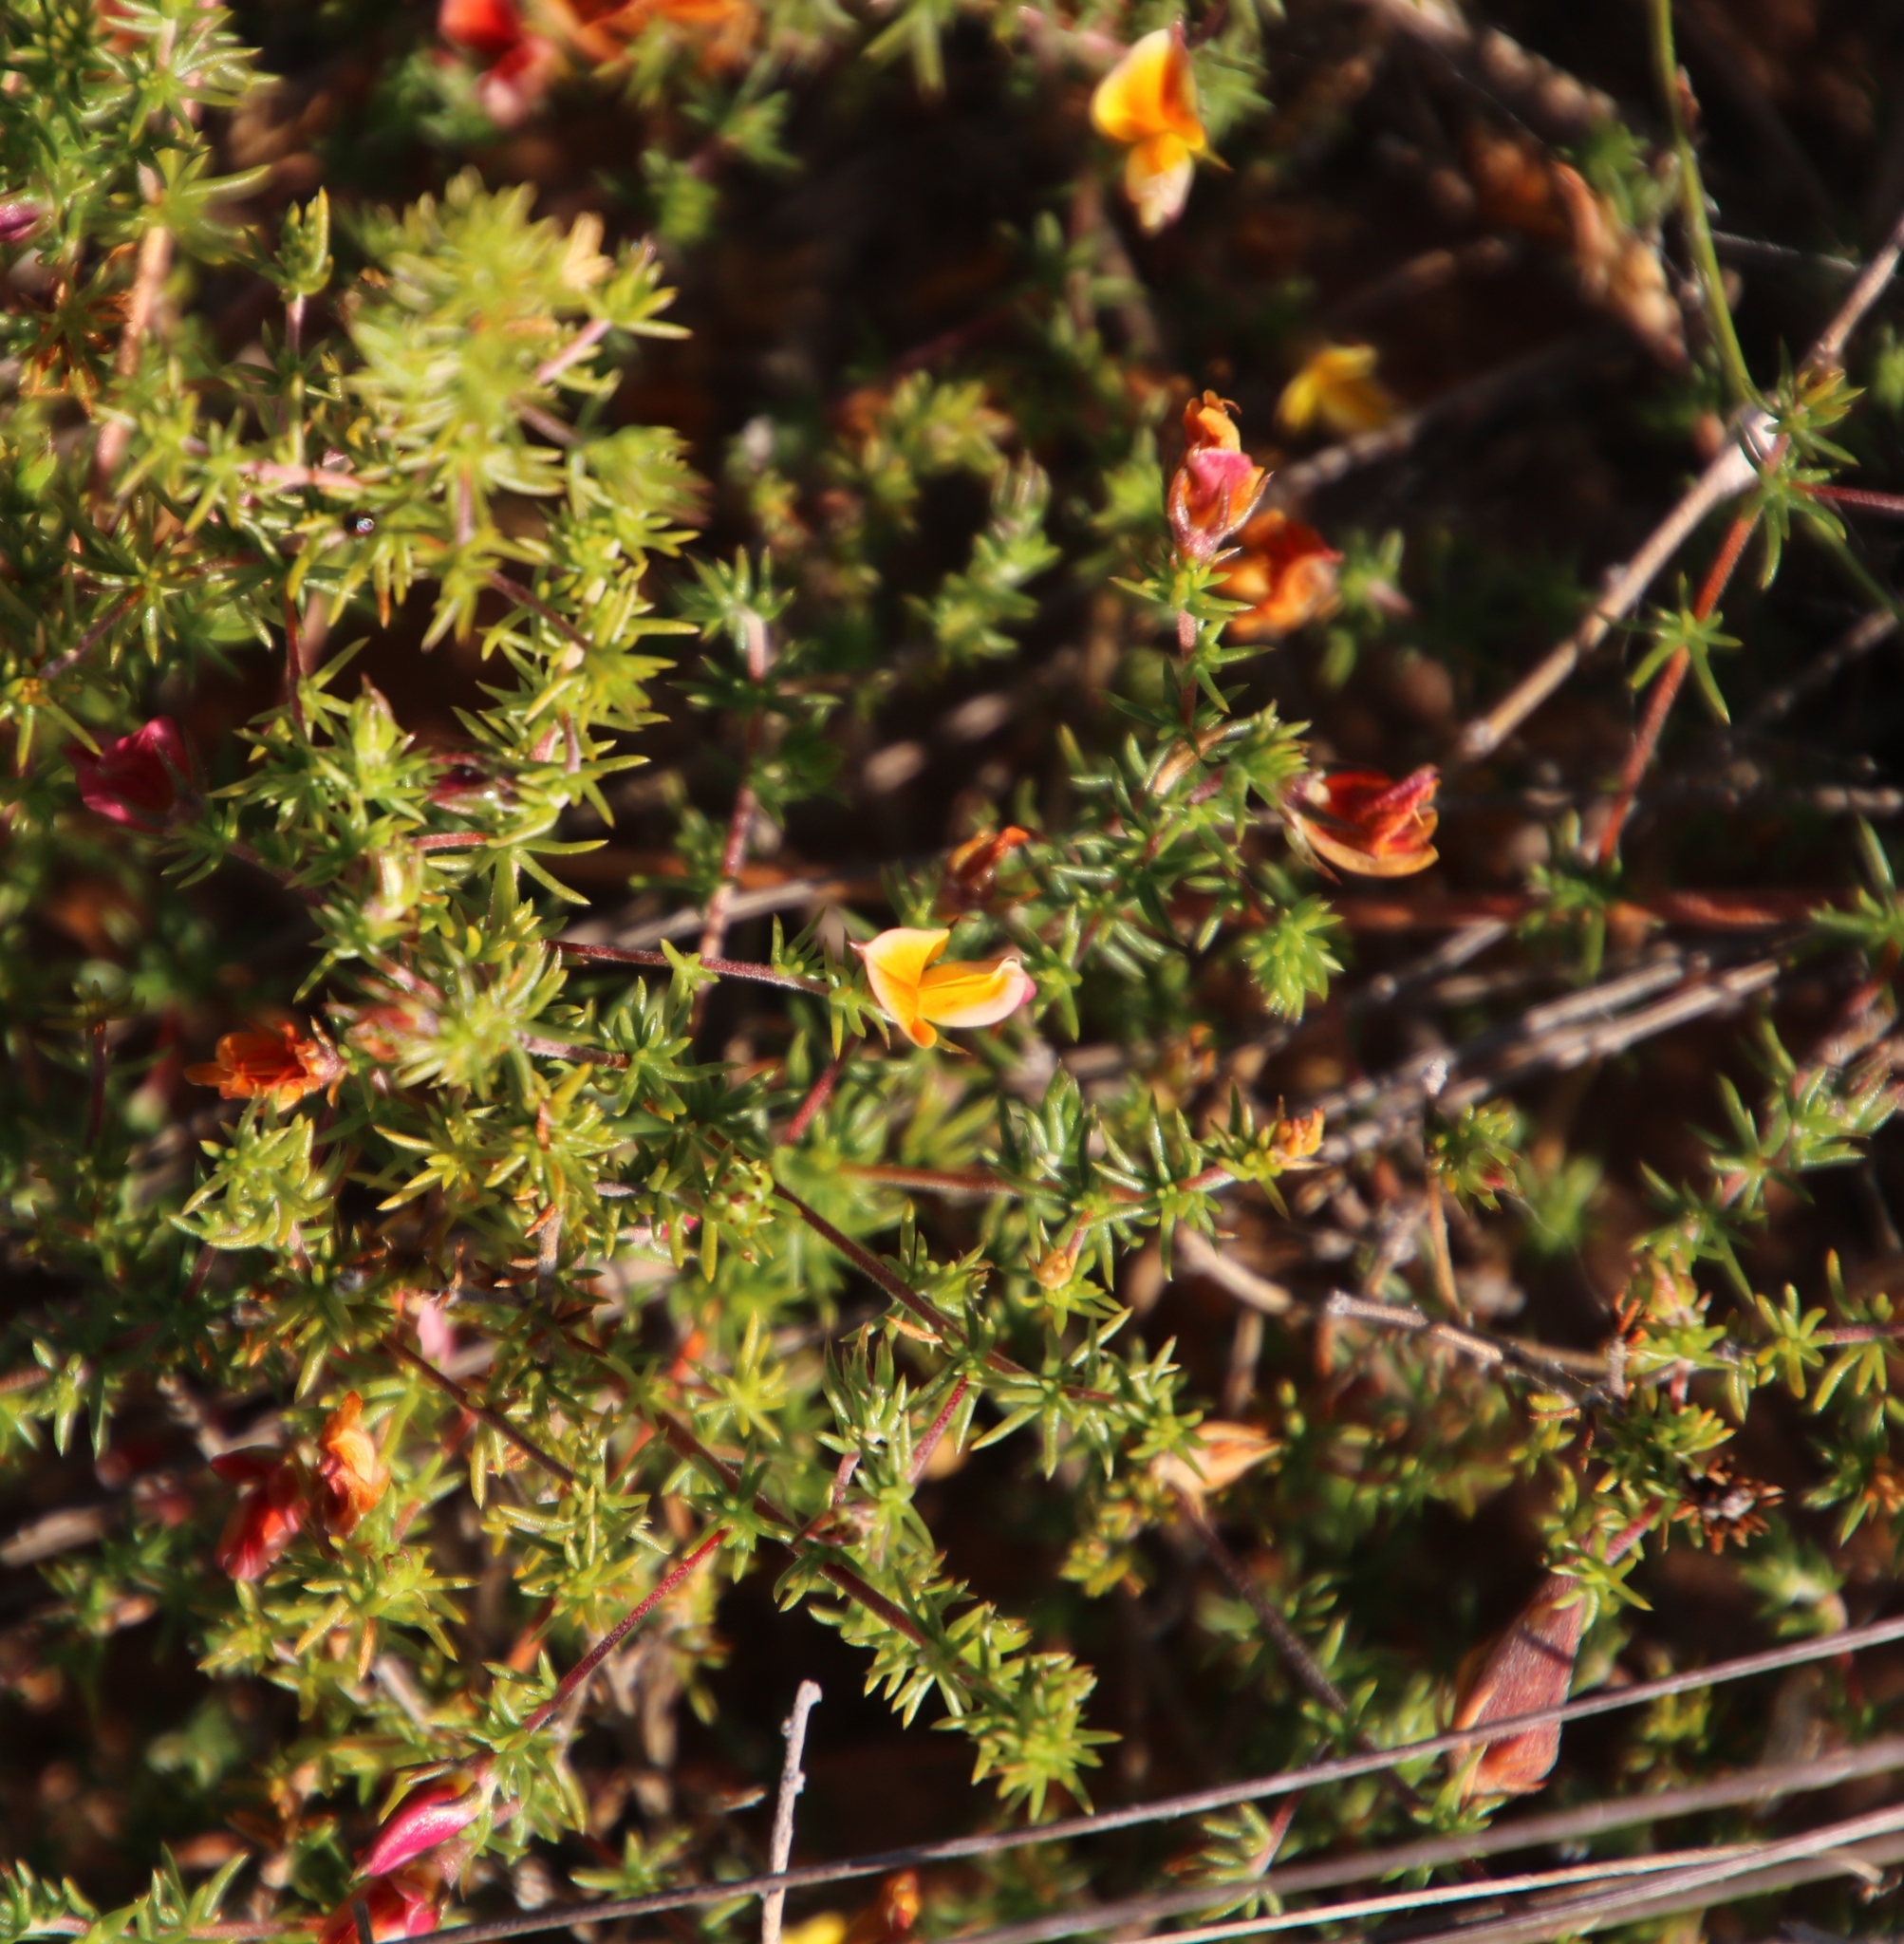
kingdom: Plantae
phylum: Tracheophyta
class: Magnoliopsida
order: Fabales
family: Fabaceae
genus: Aspalathus
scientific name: Aspalathus retroflexa
